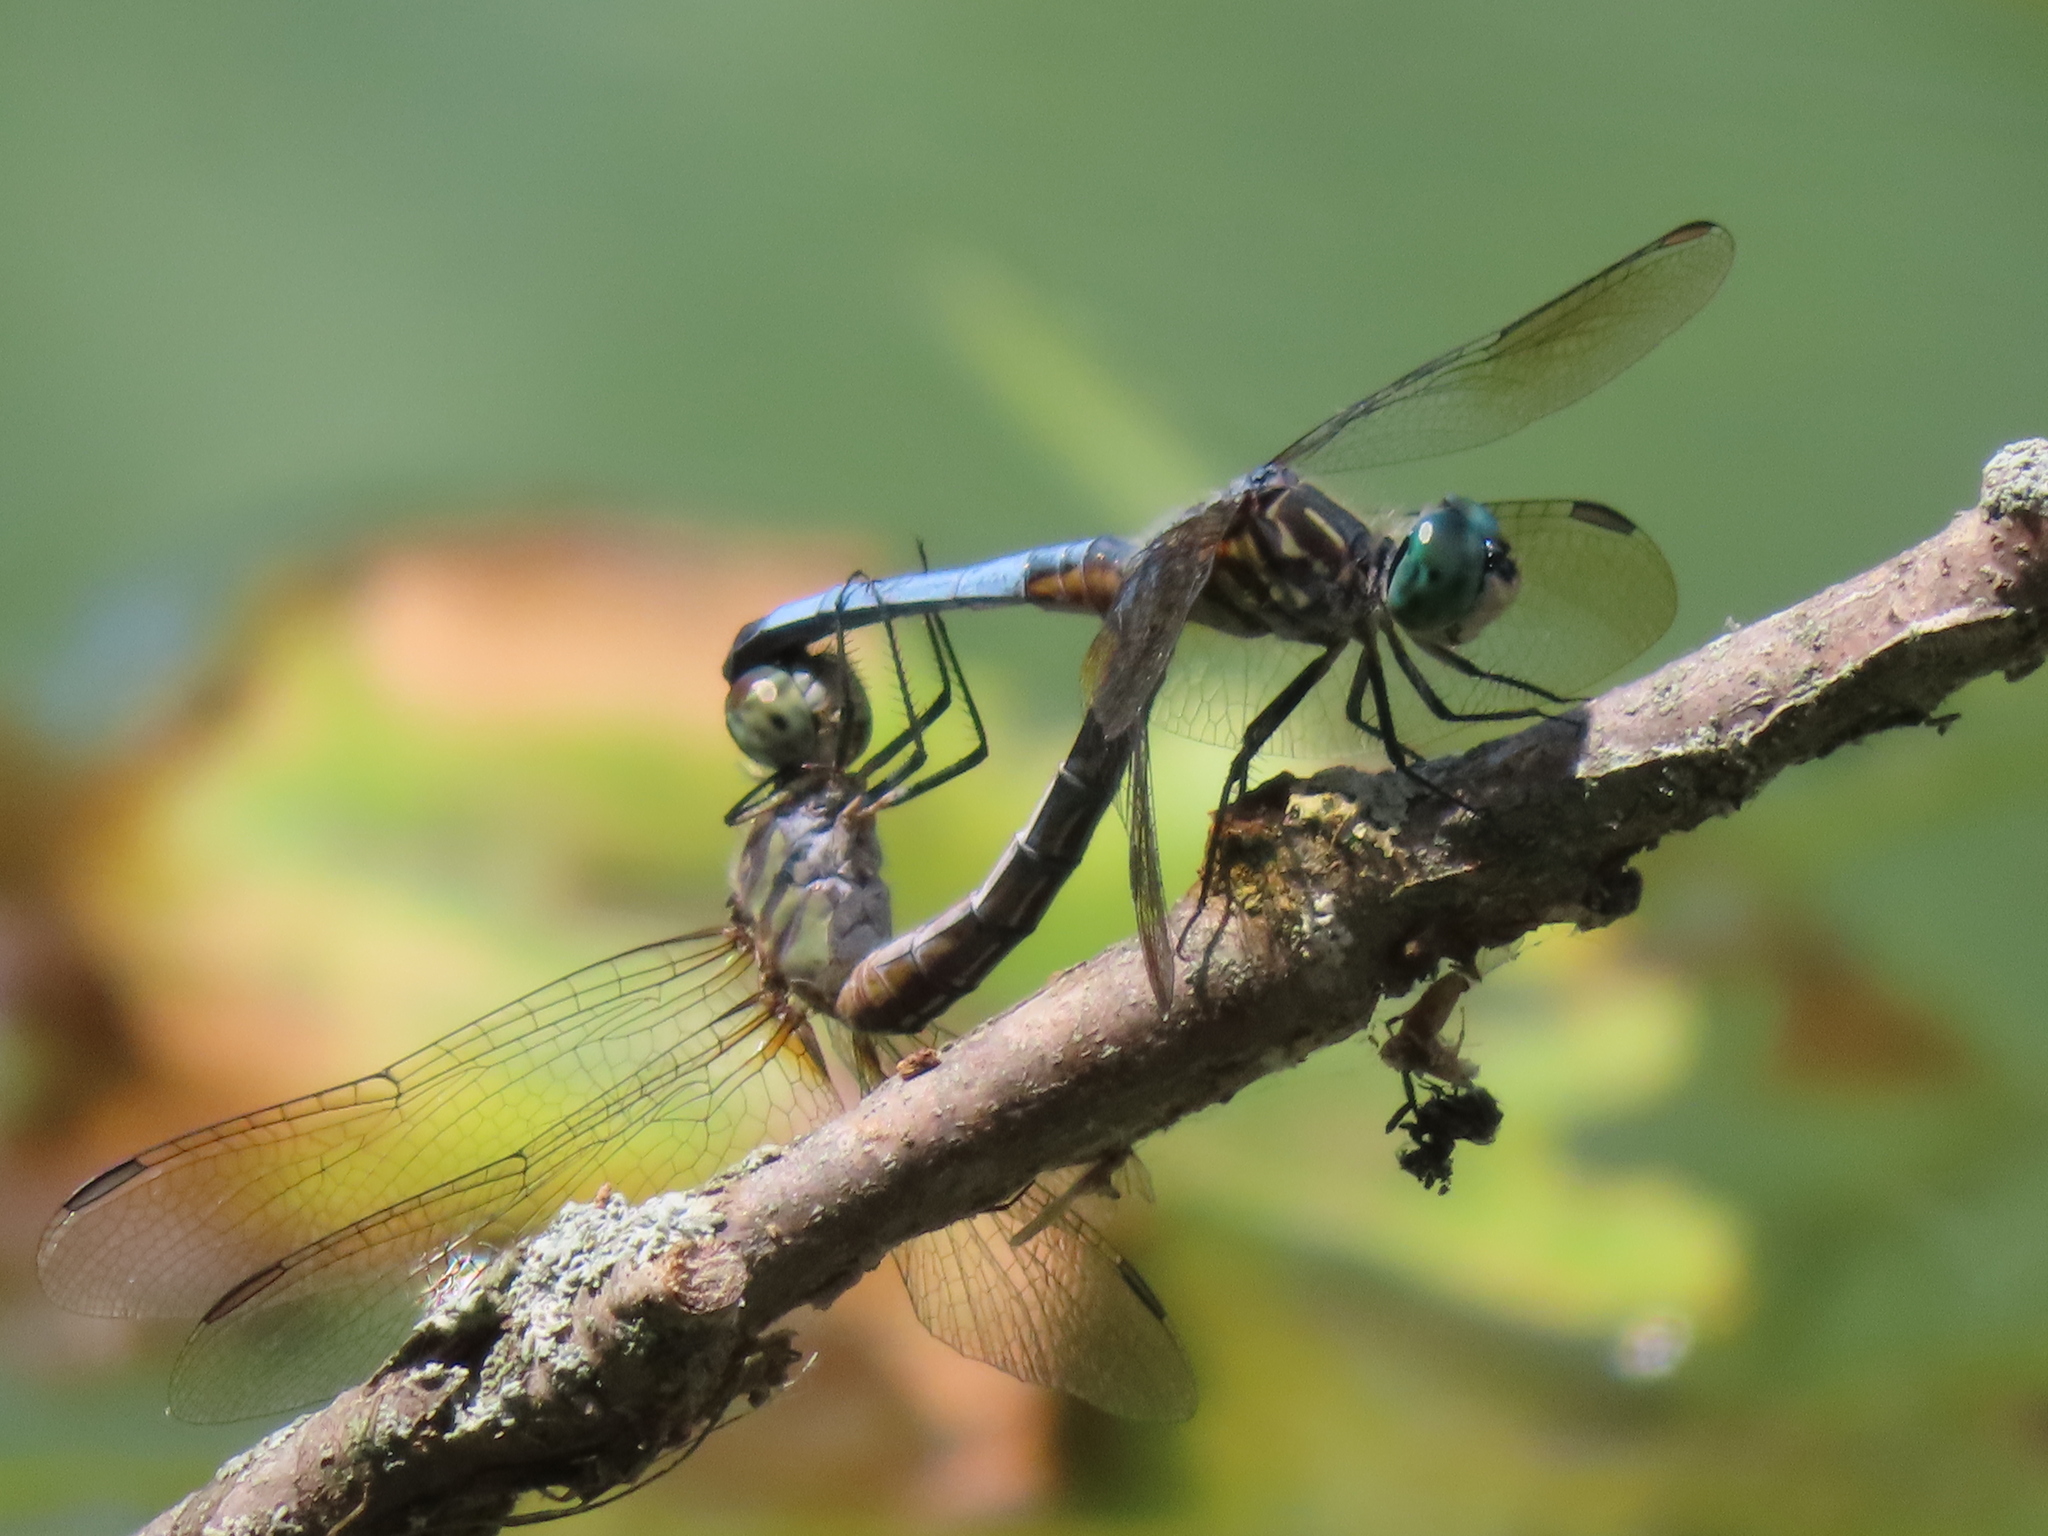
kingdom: Animalia
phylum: Arthropoda
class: Insecta
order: Odonata
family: Libellulidae
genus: Pachydiplax
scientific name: Pachydiplax longipennis
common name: Blue dasher
